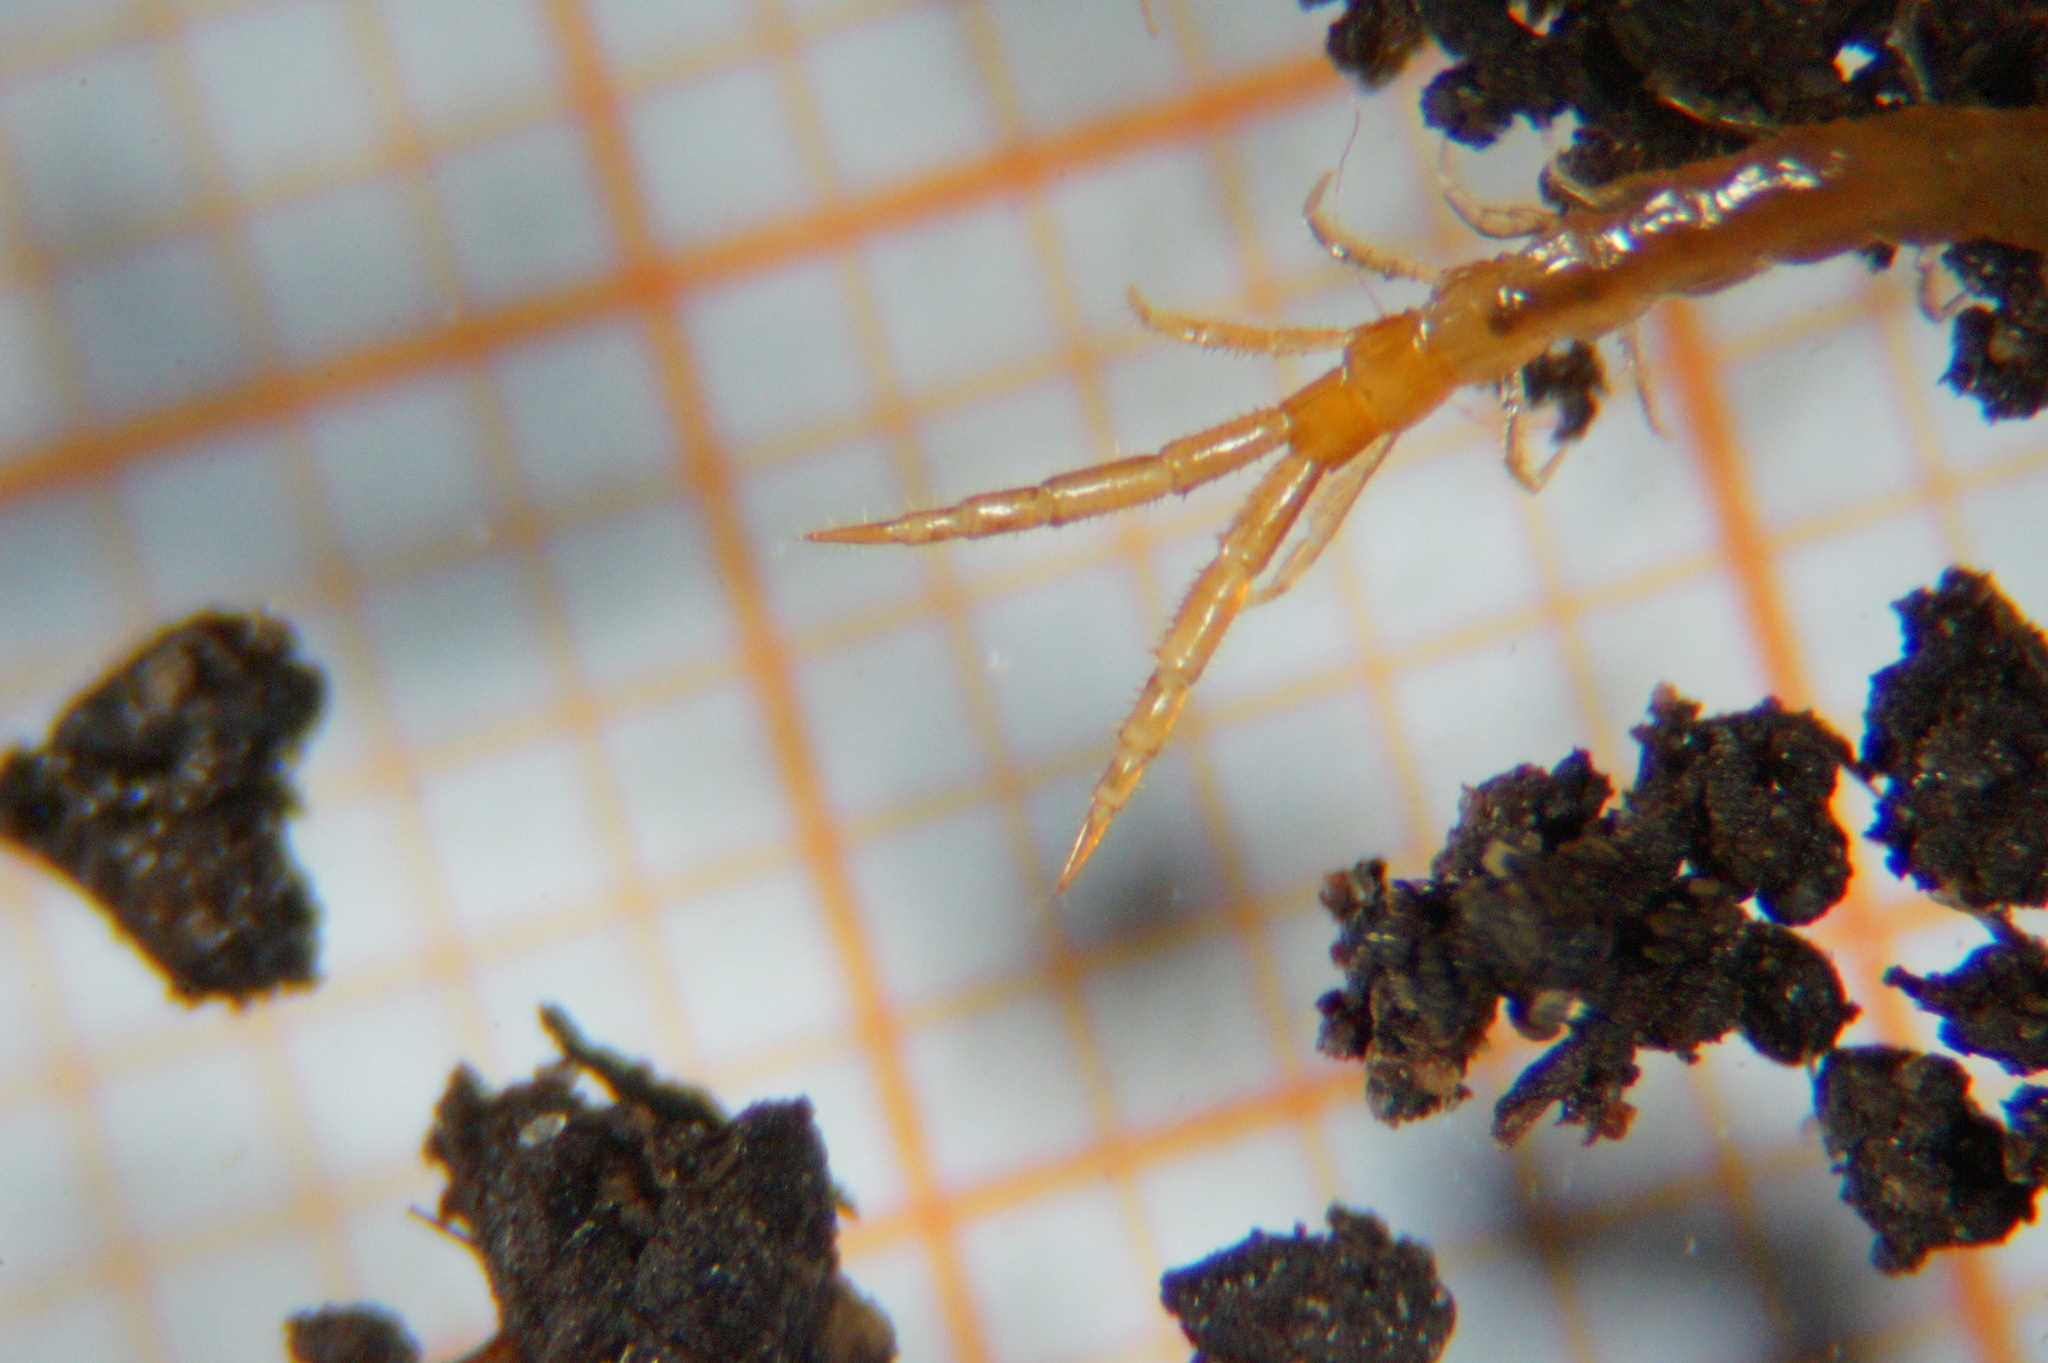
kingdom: Animalia
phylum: Arthropoda
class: Chilopoda
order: Scolopendromorpha
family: Cryptopidae
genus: Cryptops
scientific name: Cryptops
